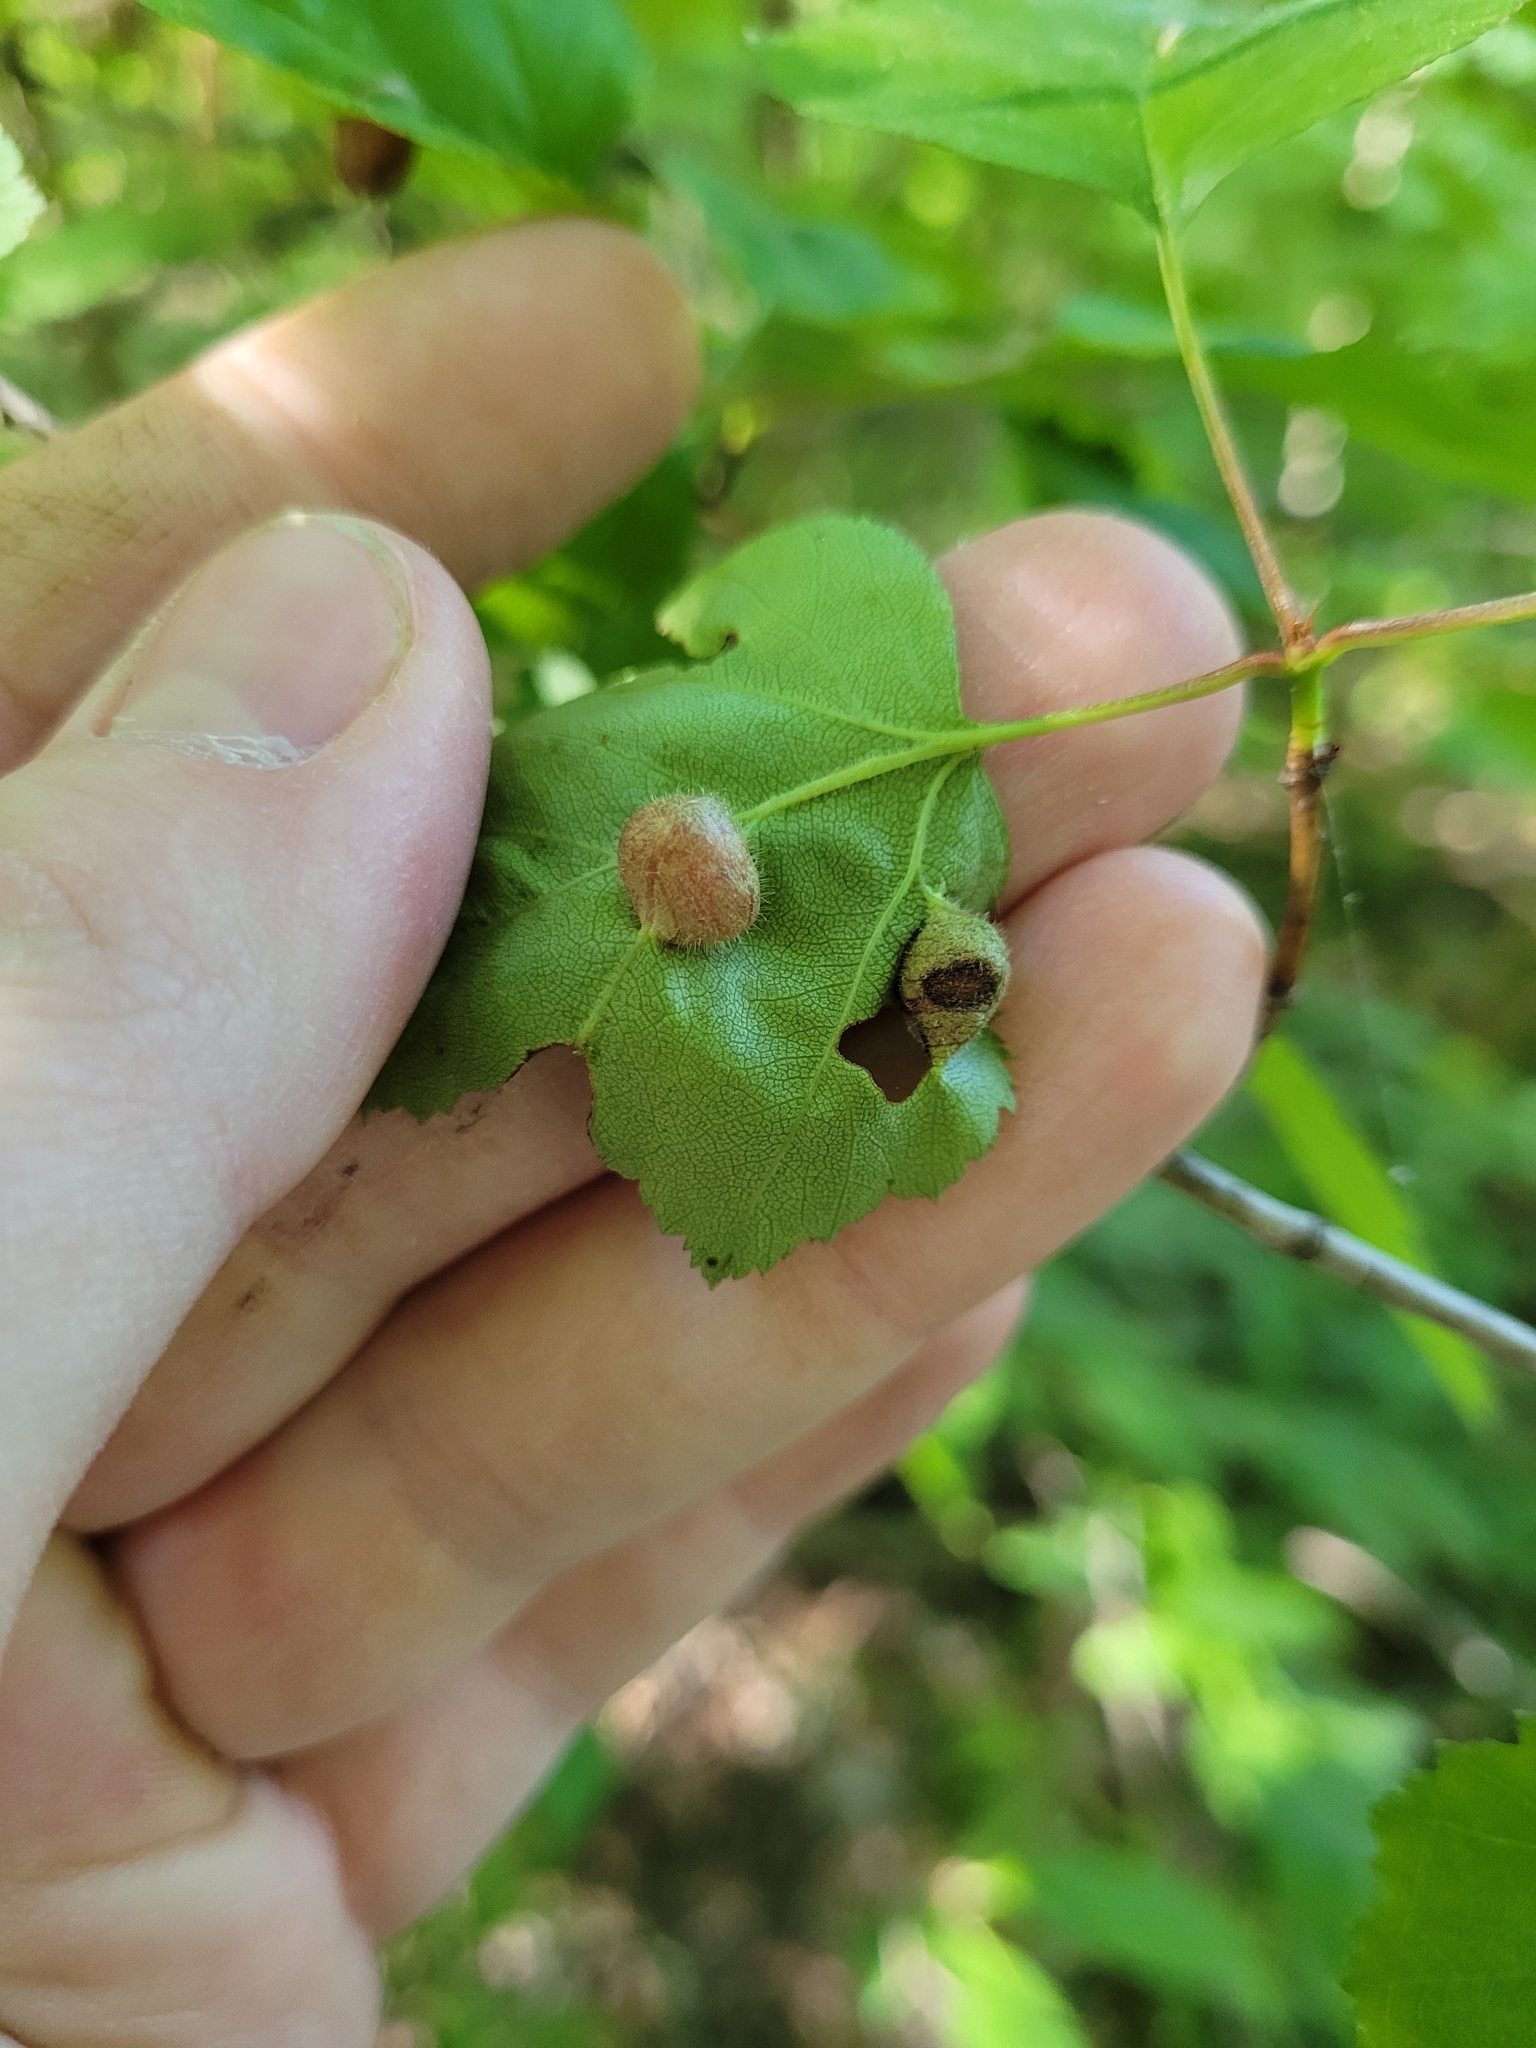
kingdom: Animalia
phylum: Arthropoda
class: Insecta
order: Diptera
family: Cecidomyiidae
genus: Blaesodiplosis
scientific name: Blaesodiplosis venae
